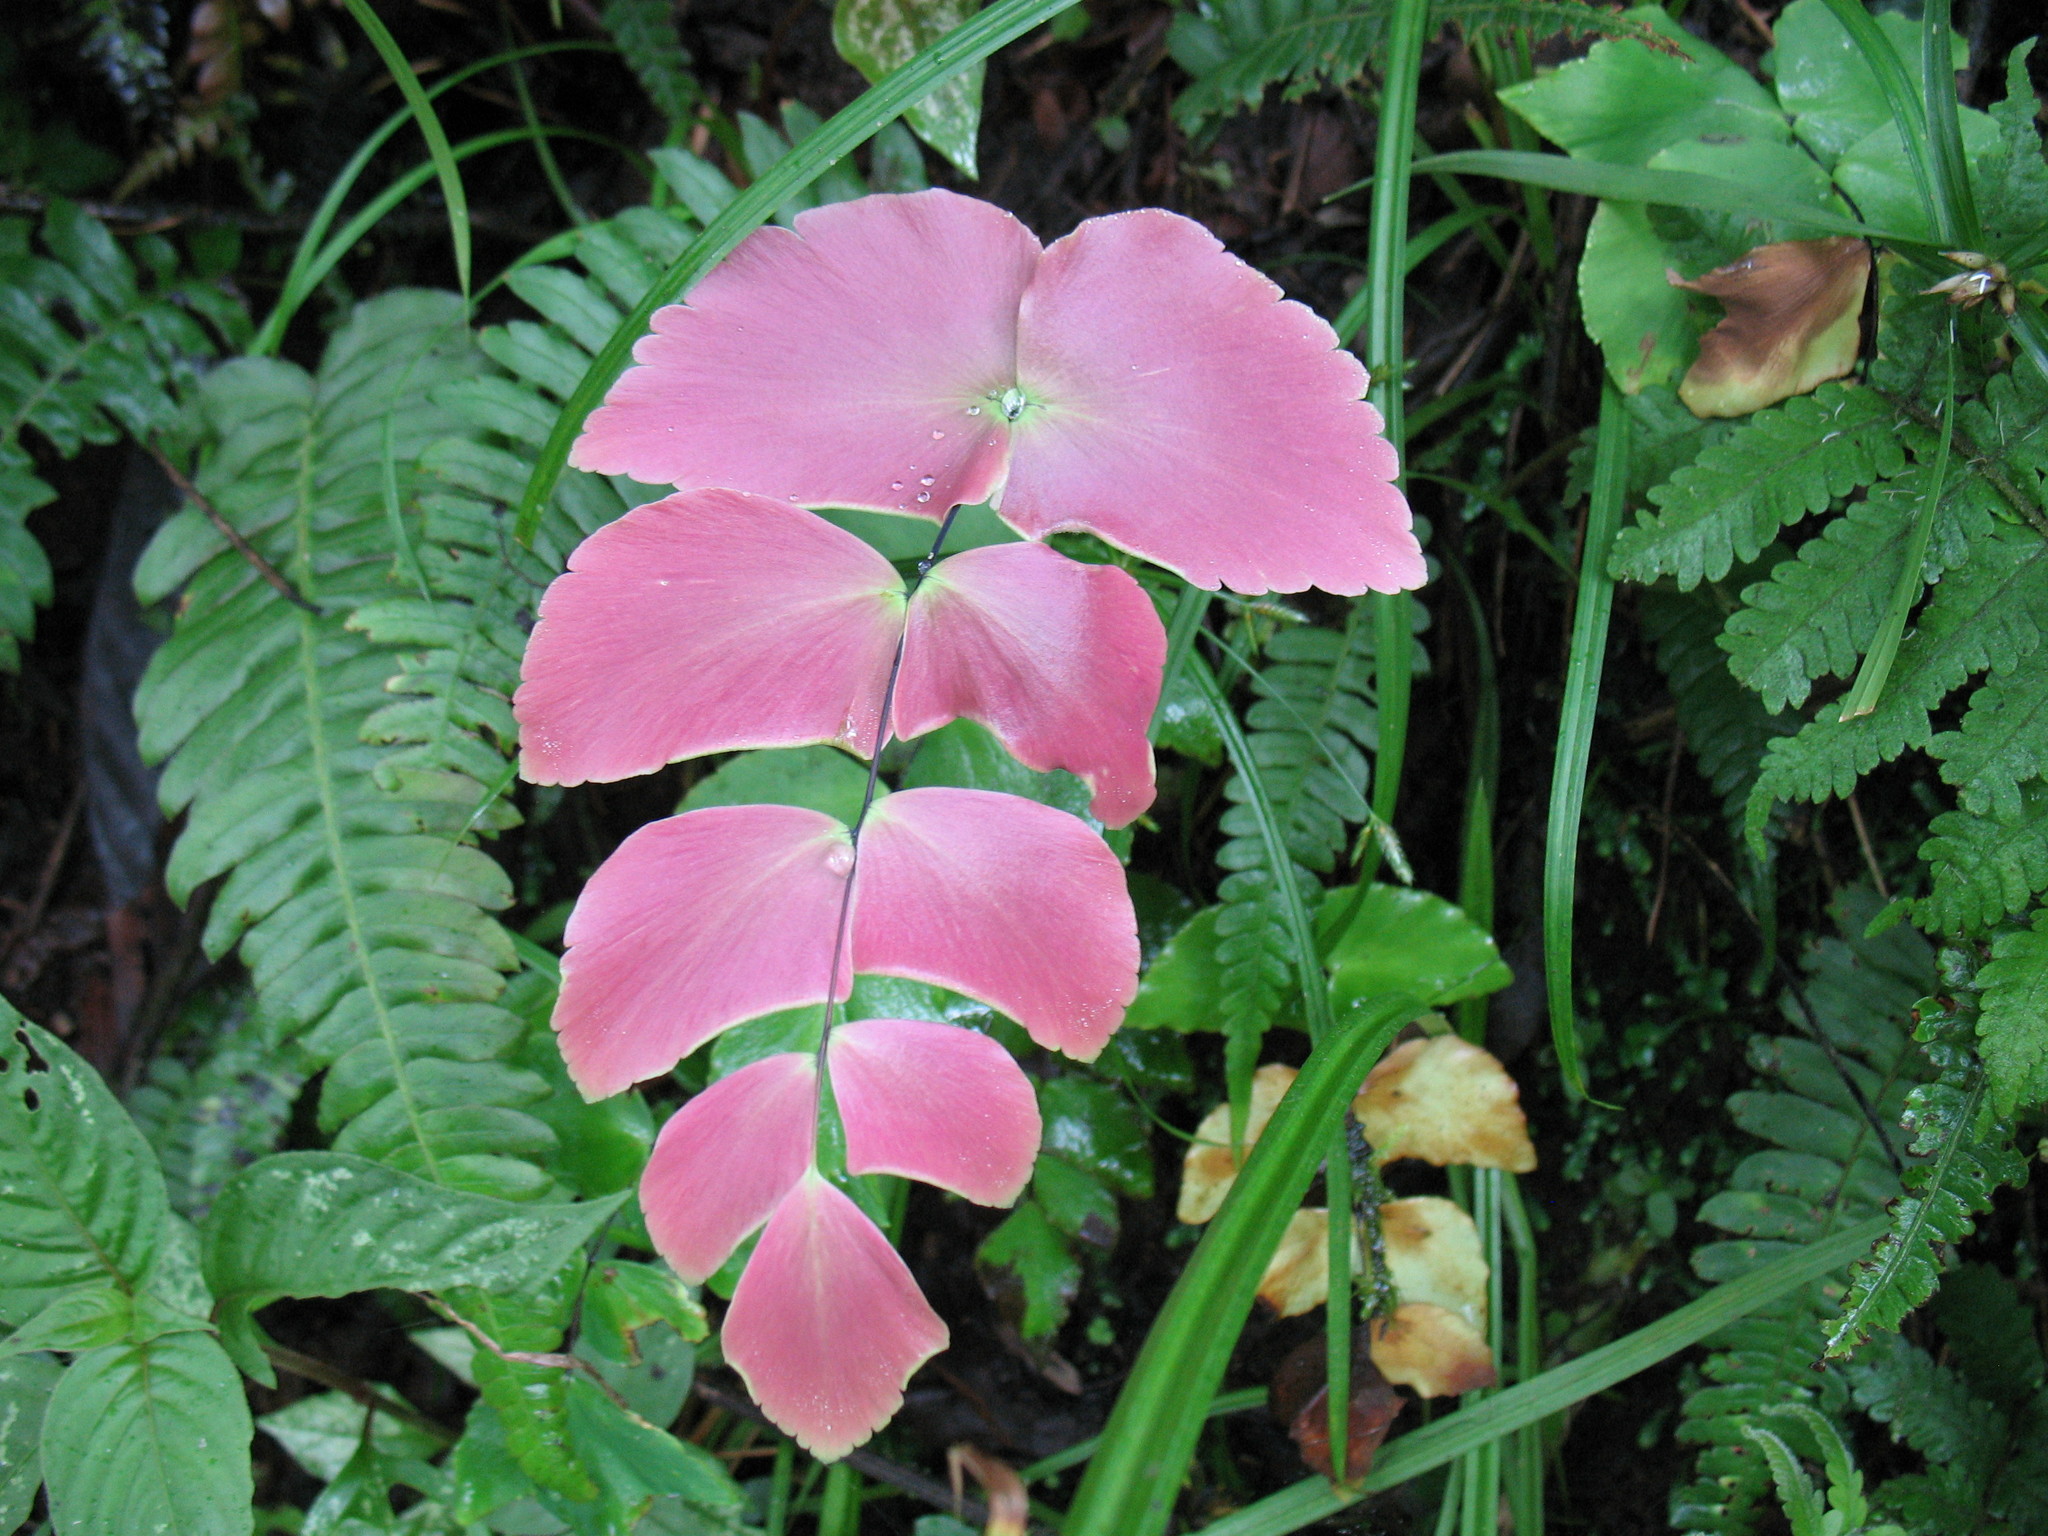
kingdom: Plantae
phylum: Tracheophyta
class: Polypodiopsida
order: Polypodiales
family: Pteridaceae
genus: Adiantum
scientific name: Adiantum macrophyllum
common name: Largeleaf maidenhair
